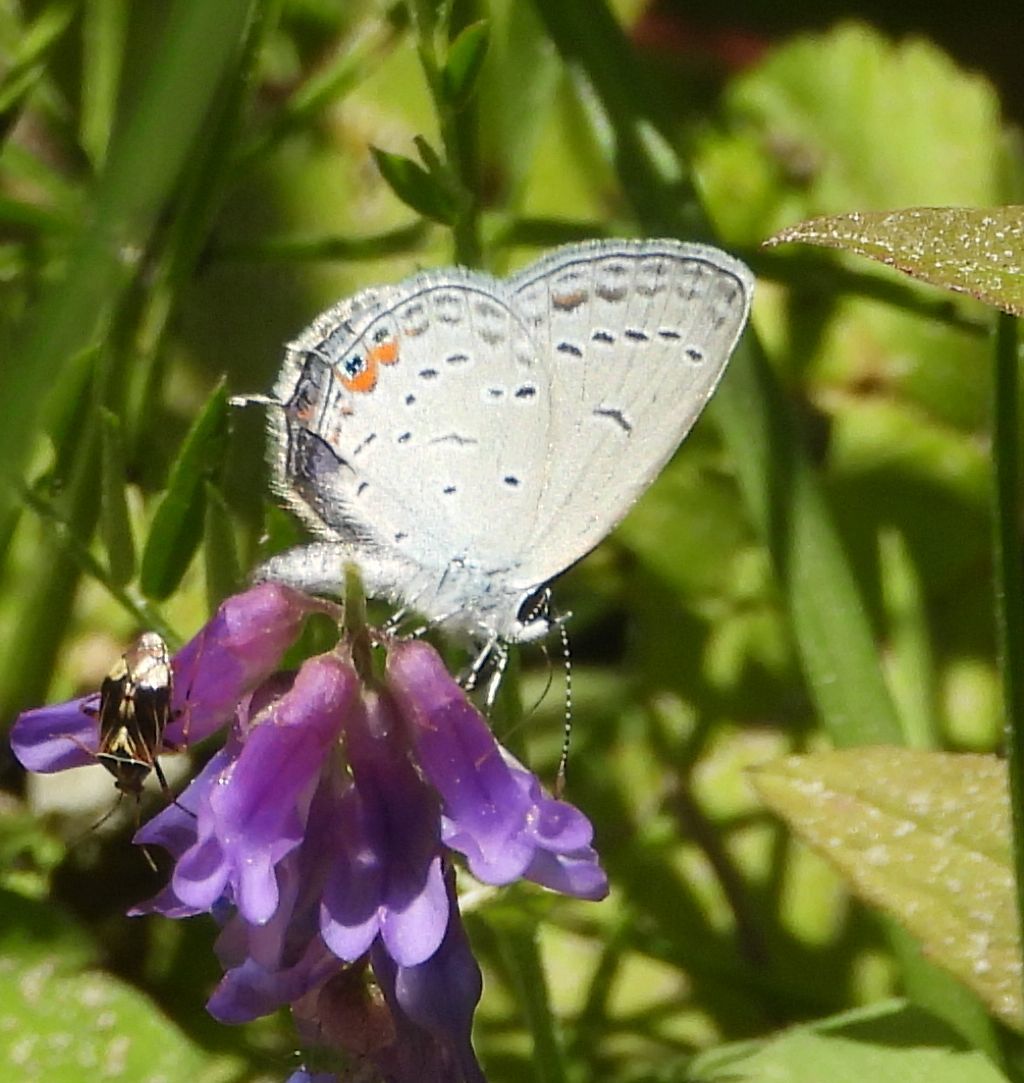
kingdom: Animalia
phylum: Arthropoda
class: Insecta
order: Lepidoptera
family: Lycaenidae
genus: Elkalyce
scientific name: Elkalyce comyntas
